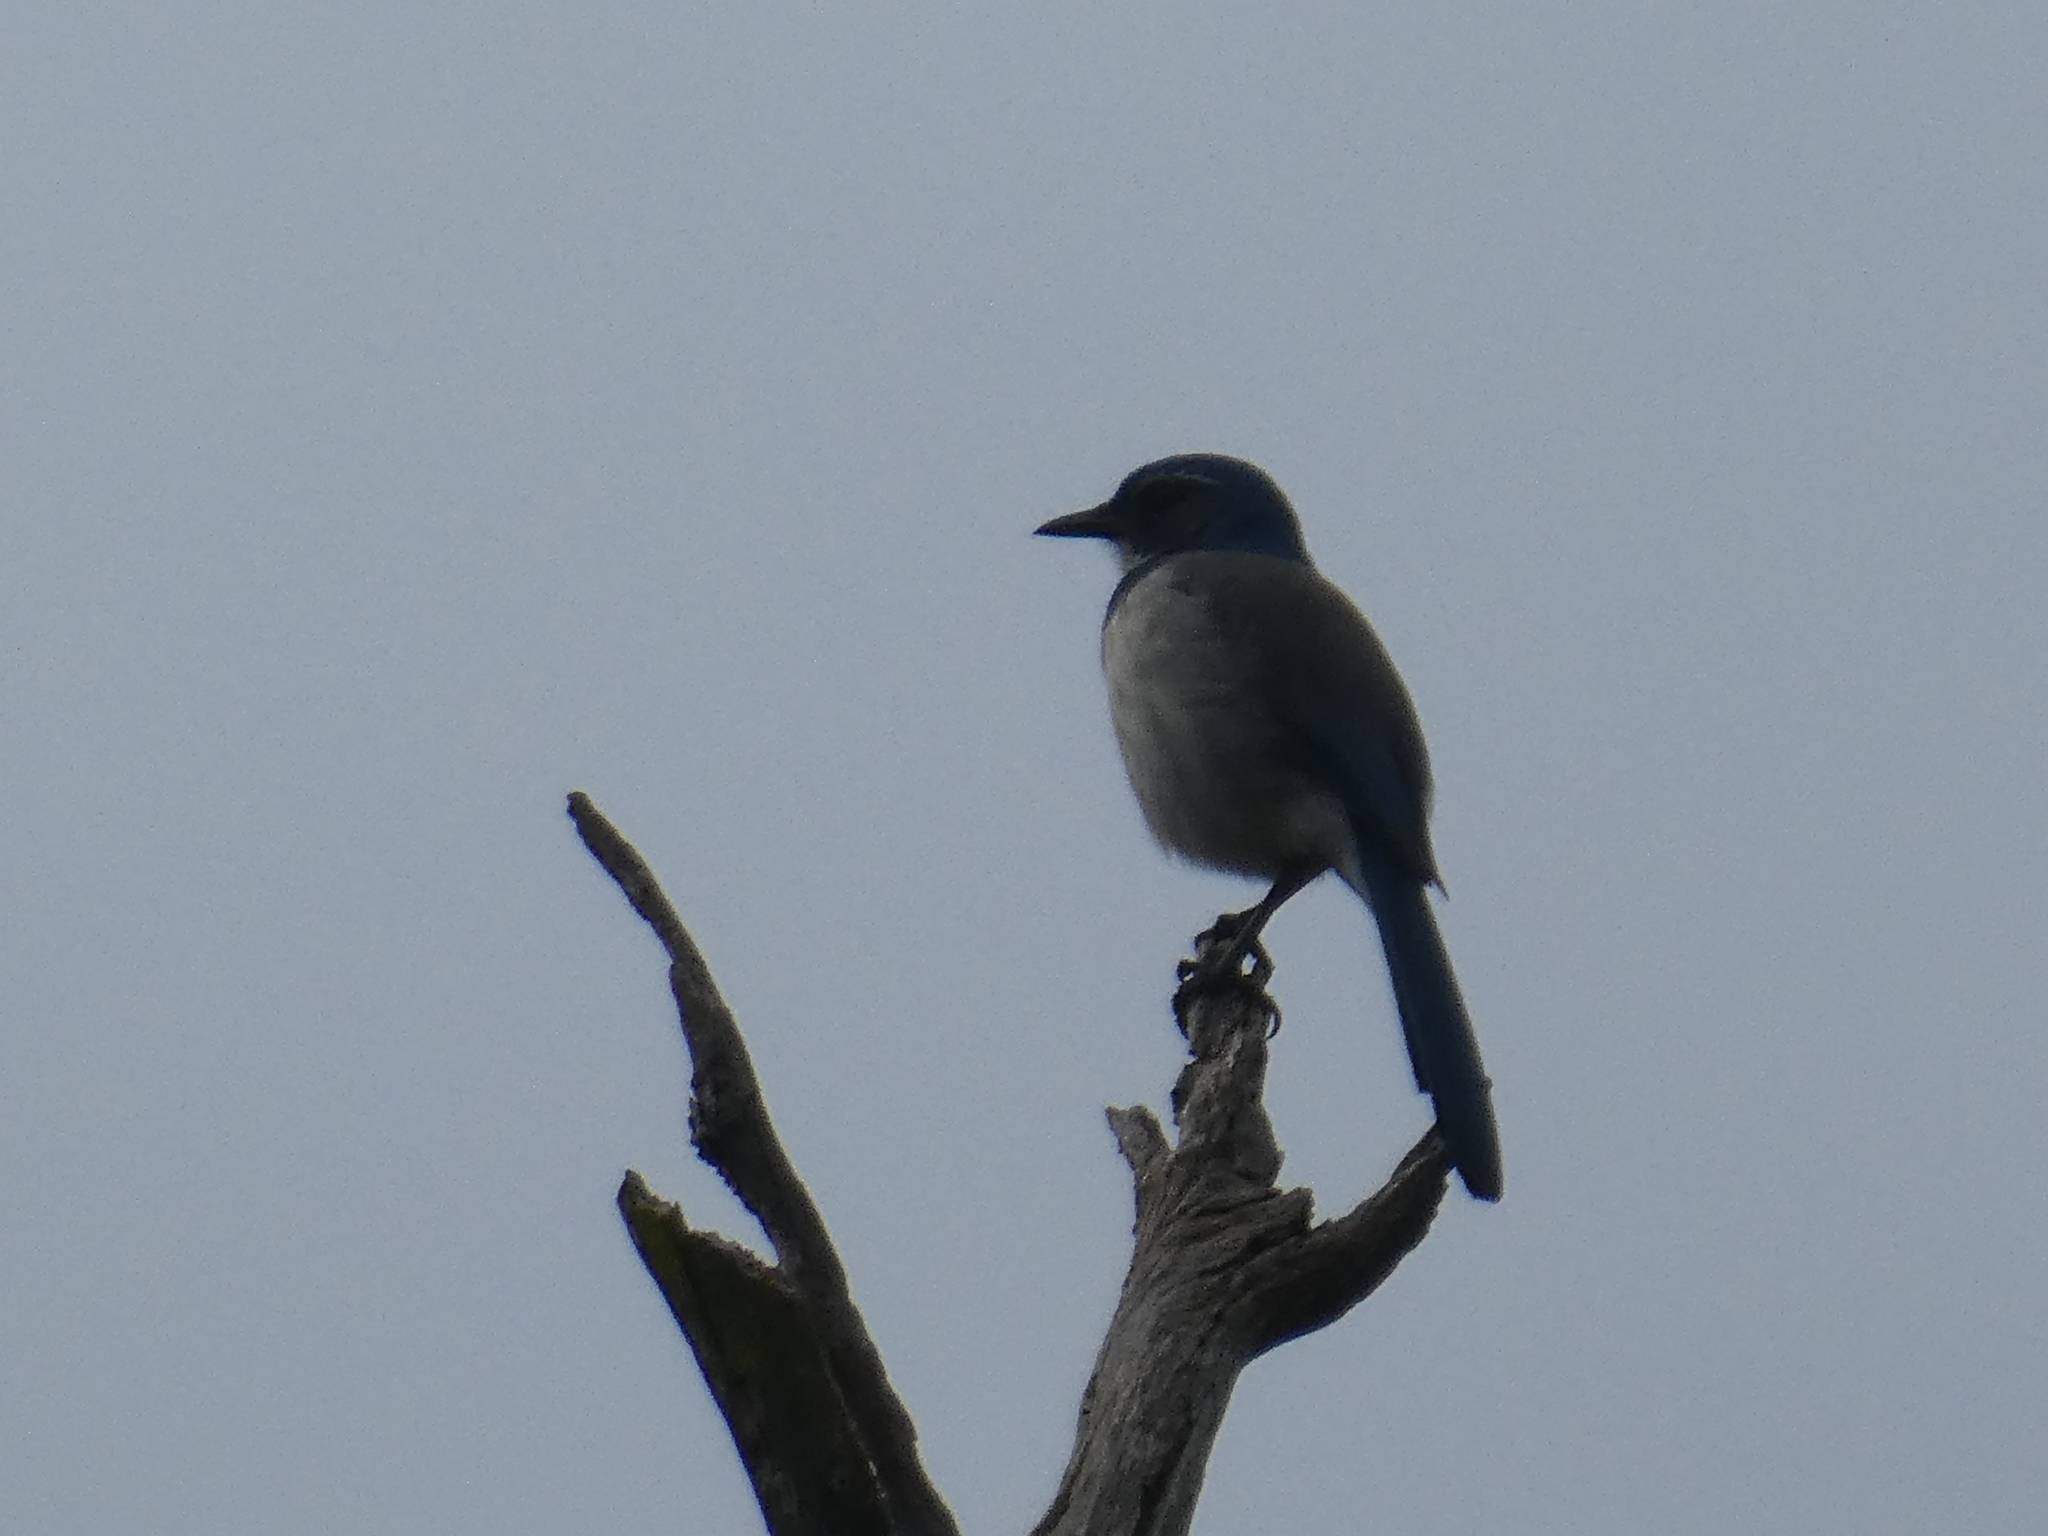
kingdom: Animalia
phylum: Chordata
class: Aves
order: Passeriformes
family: Corvidae
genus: Aphelocoma
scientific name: Aphelocoma californica
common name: California scrub-jay
